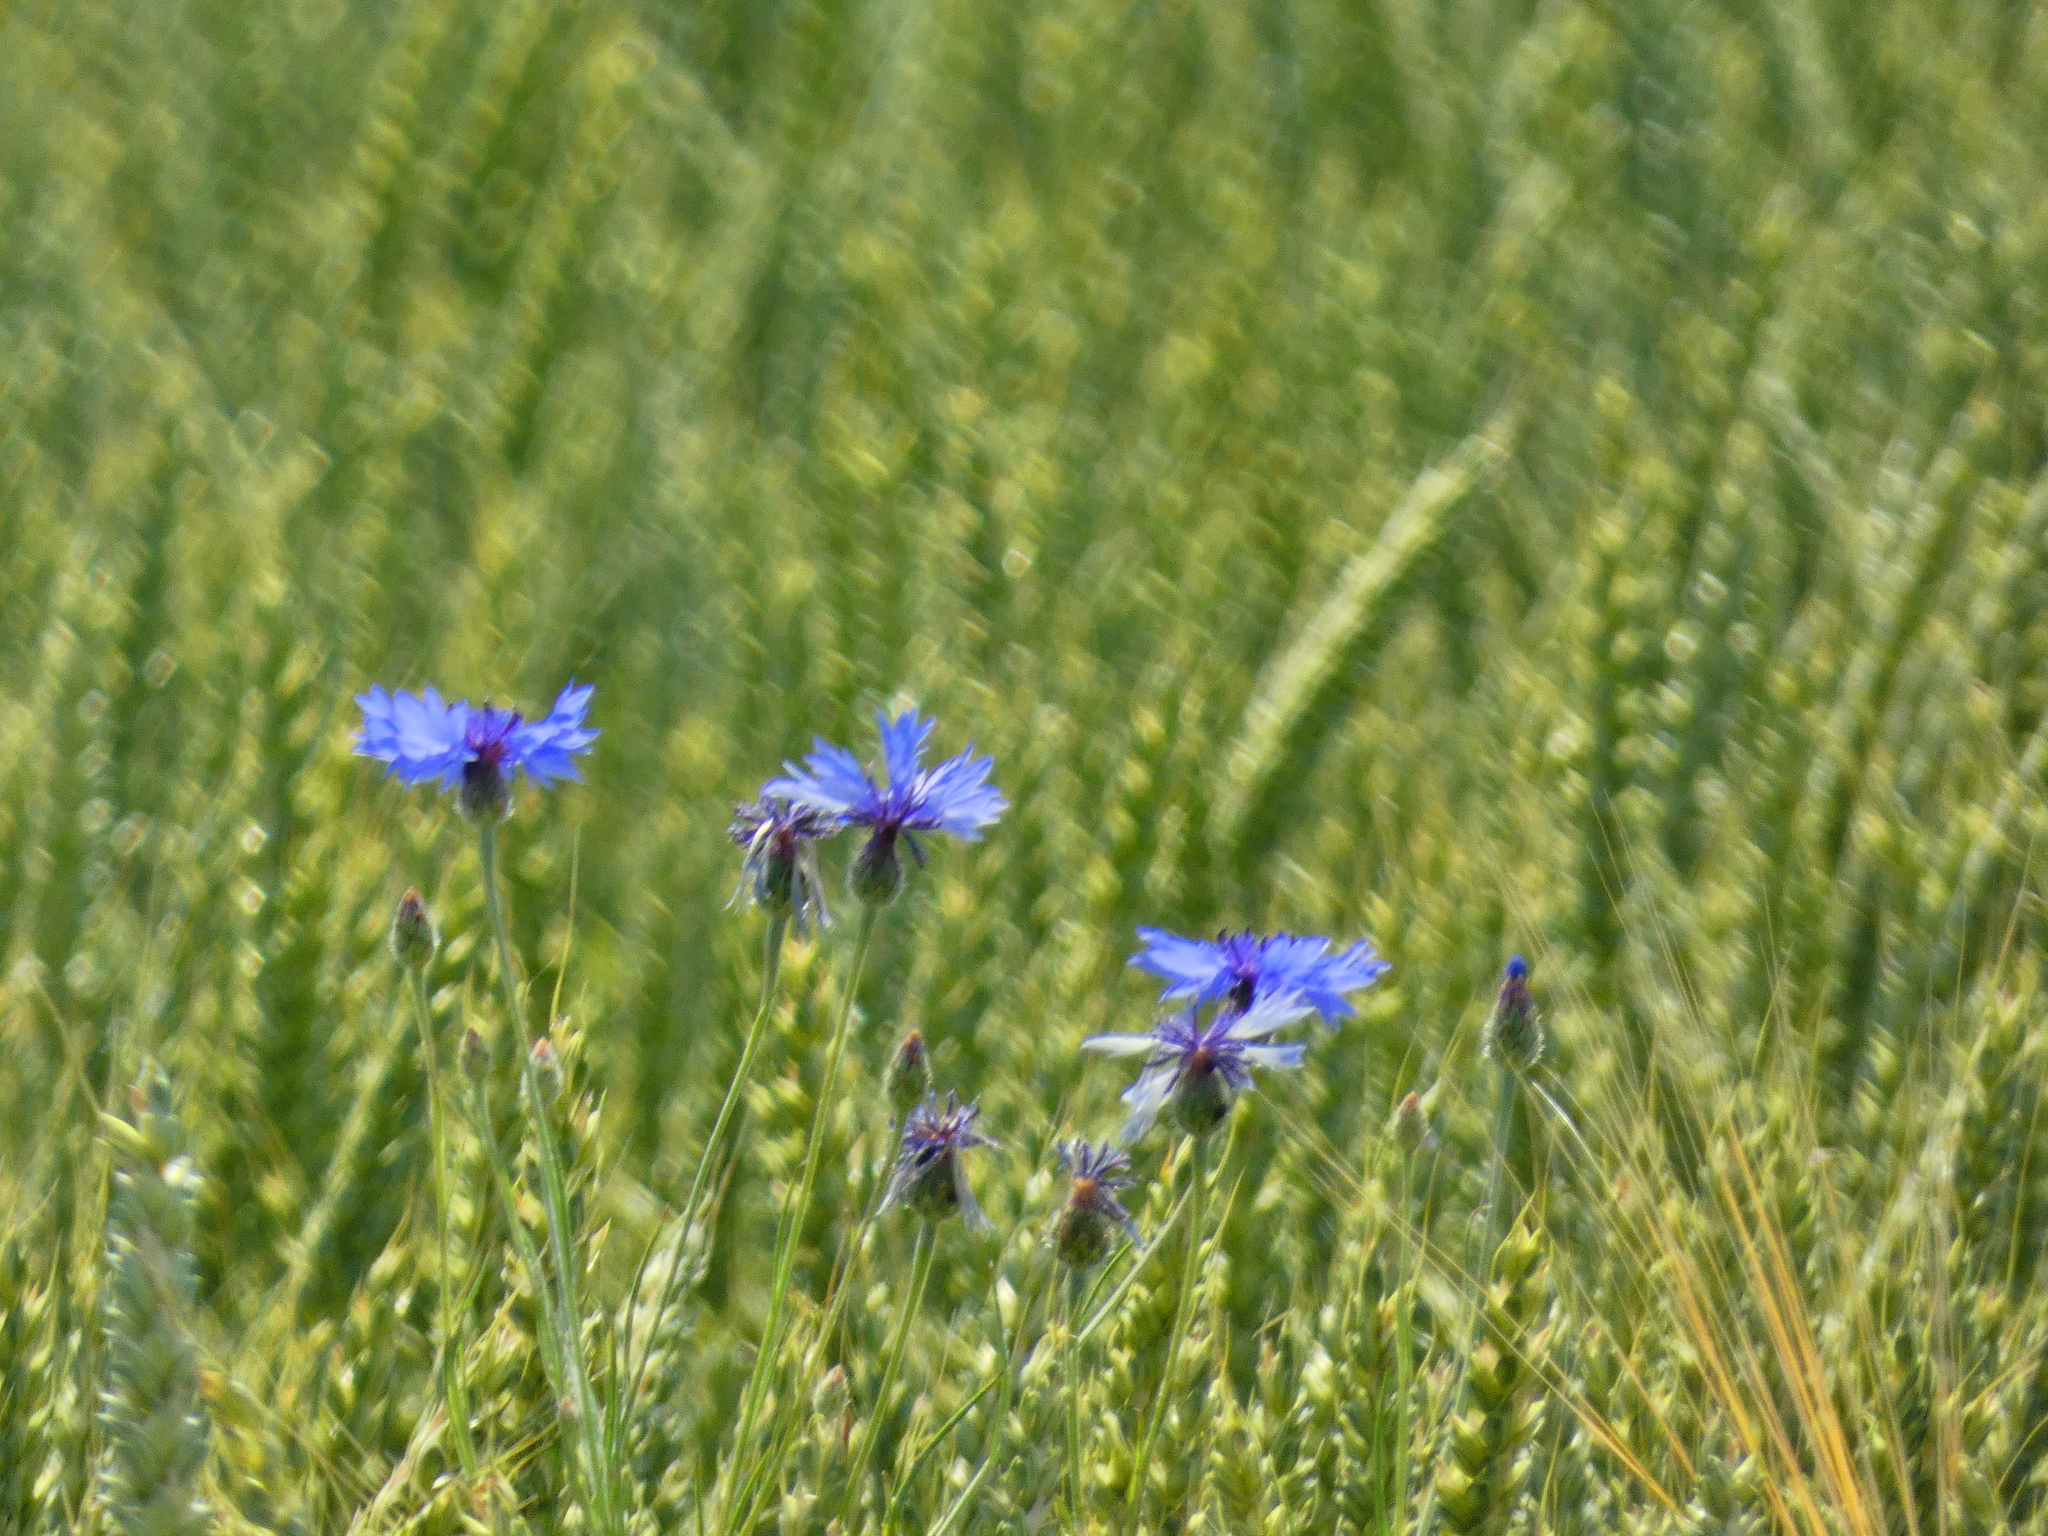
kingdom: Plantae
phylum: Tracheophyta
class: Magnoliopsida
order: Asterales
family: Asteraceae
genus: Centaurea
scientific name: Centaurea cyanus
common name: Cornflower
